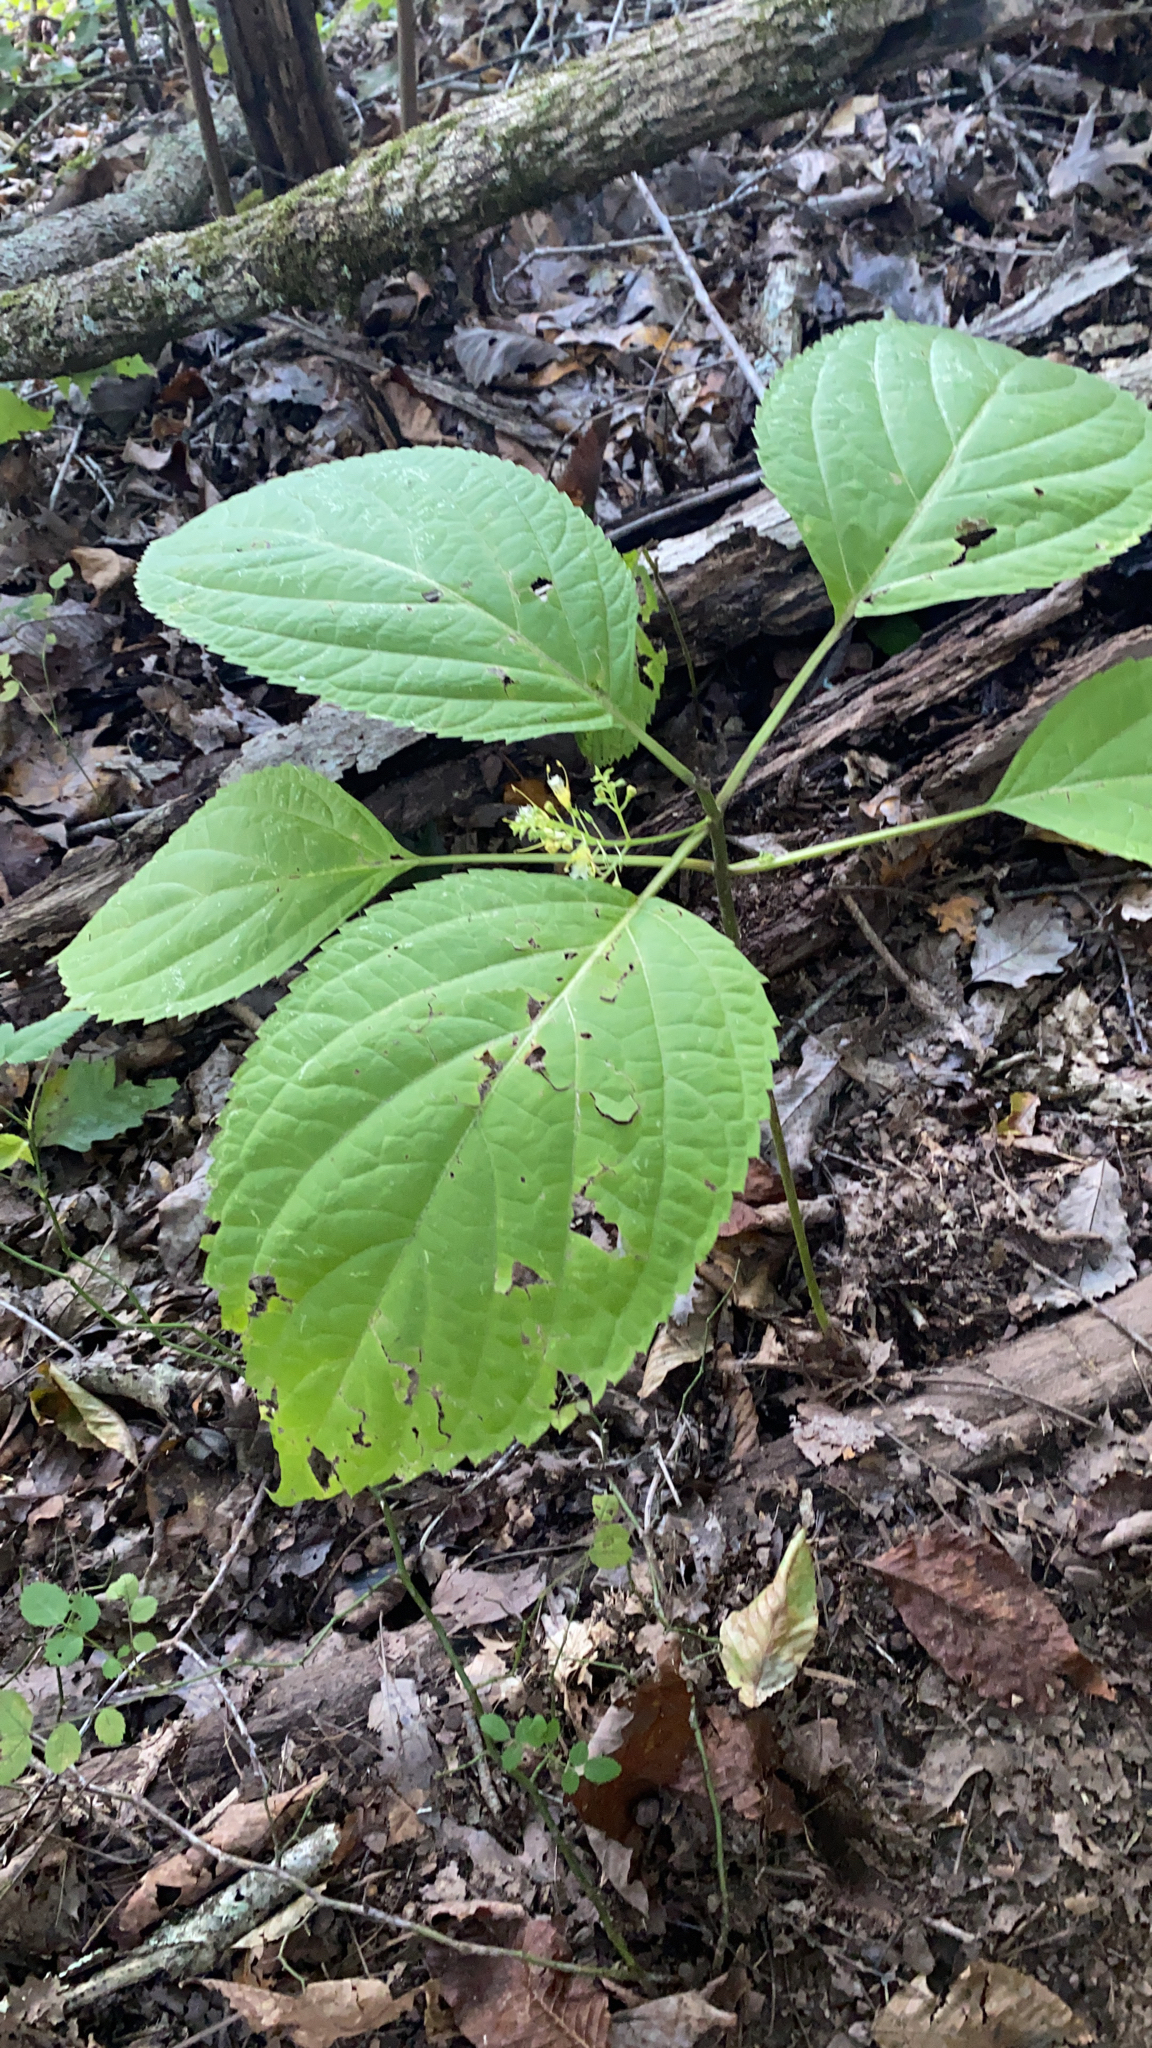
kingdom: Plantae
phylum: Tracheophyta
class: Magnoliopsida
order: Lamiales
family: Lamiaceae
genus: Collinsonia
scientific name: Collinsonia canadensis
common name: Northern horsebalm
